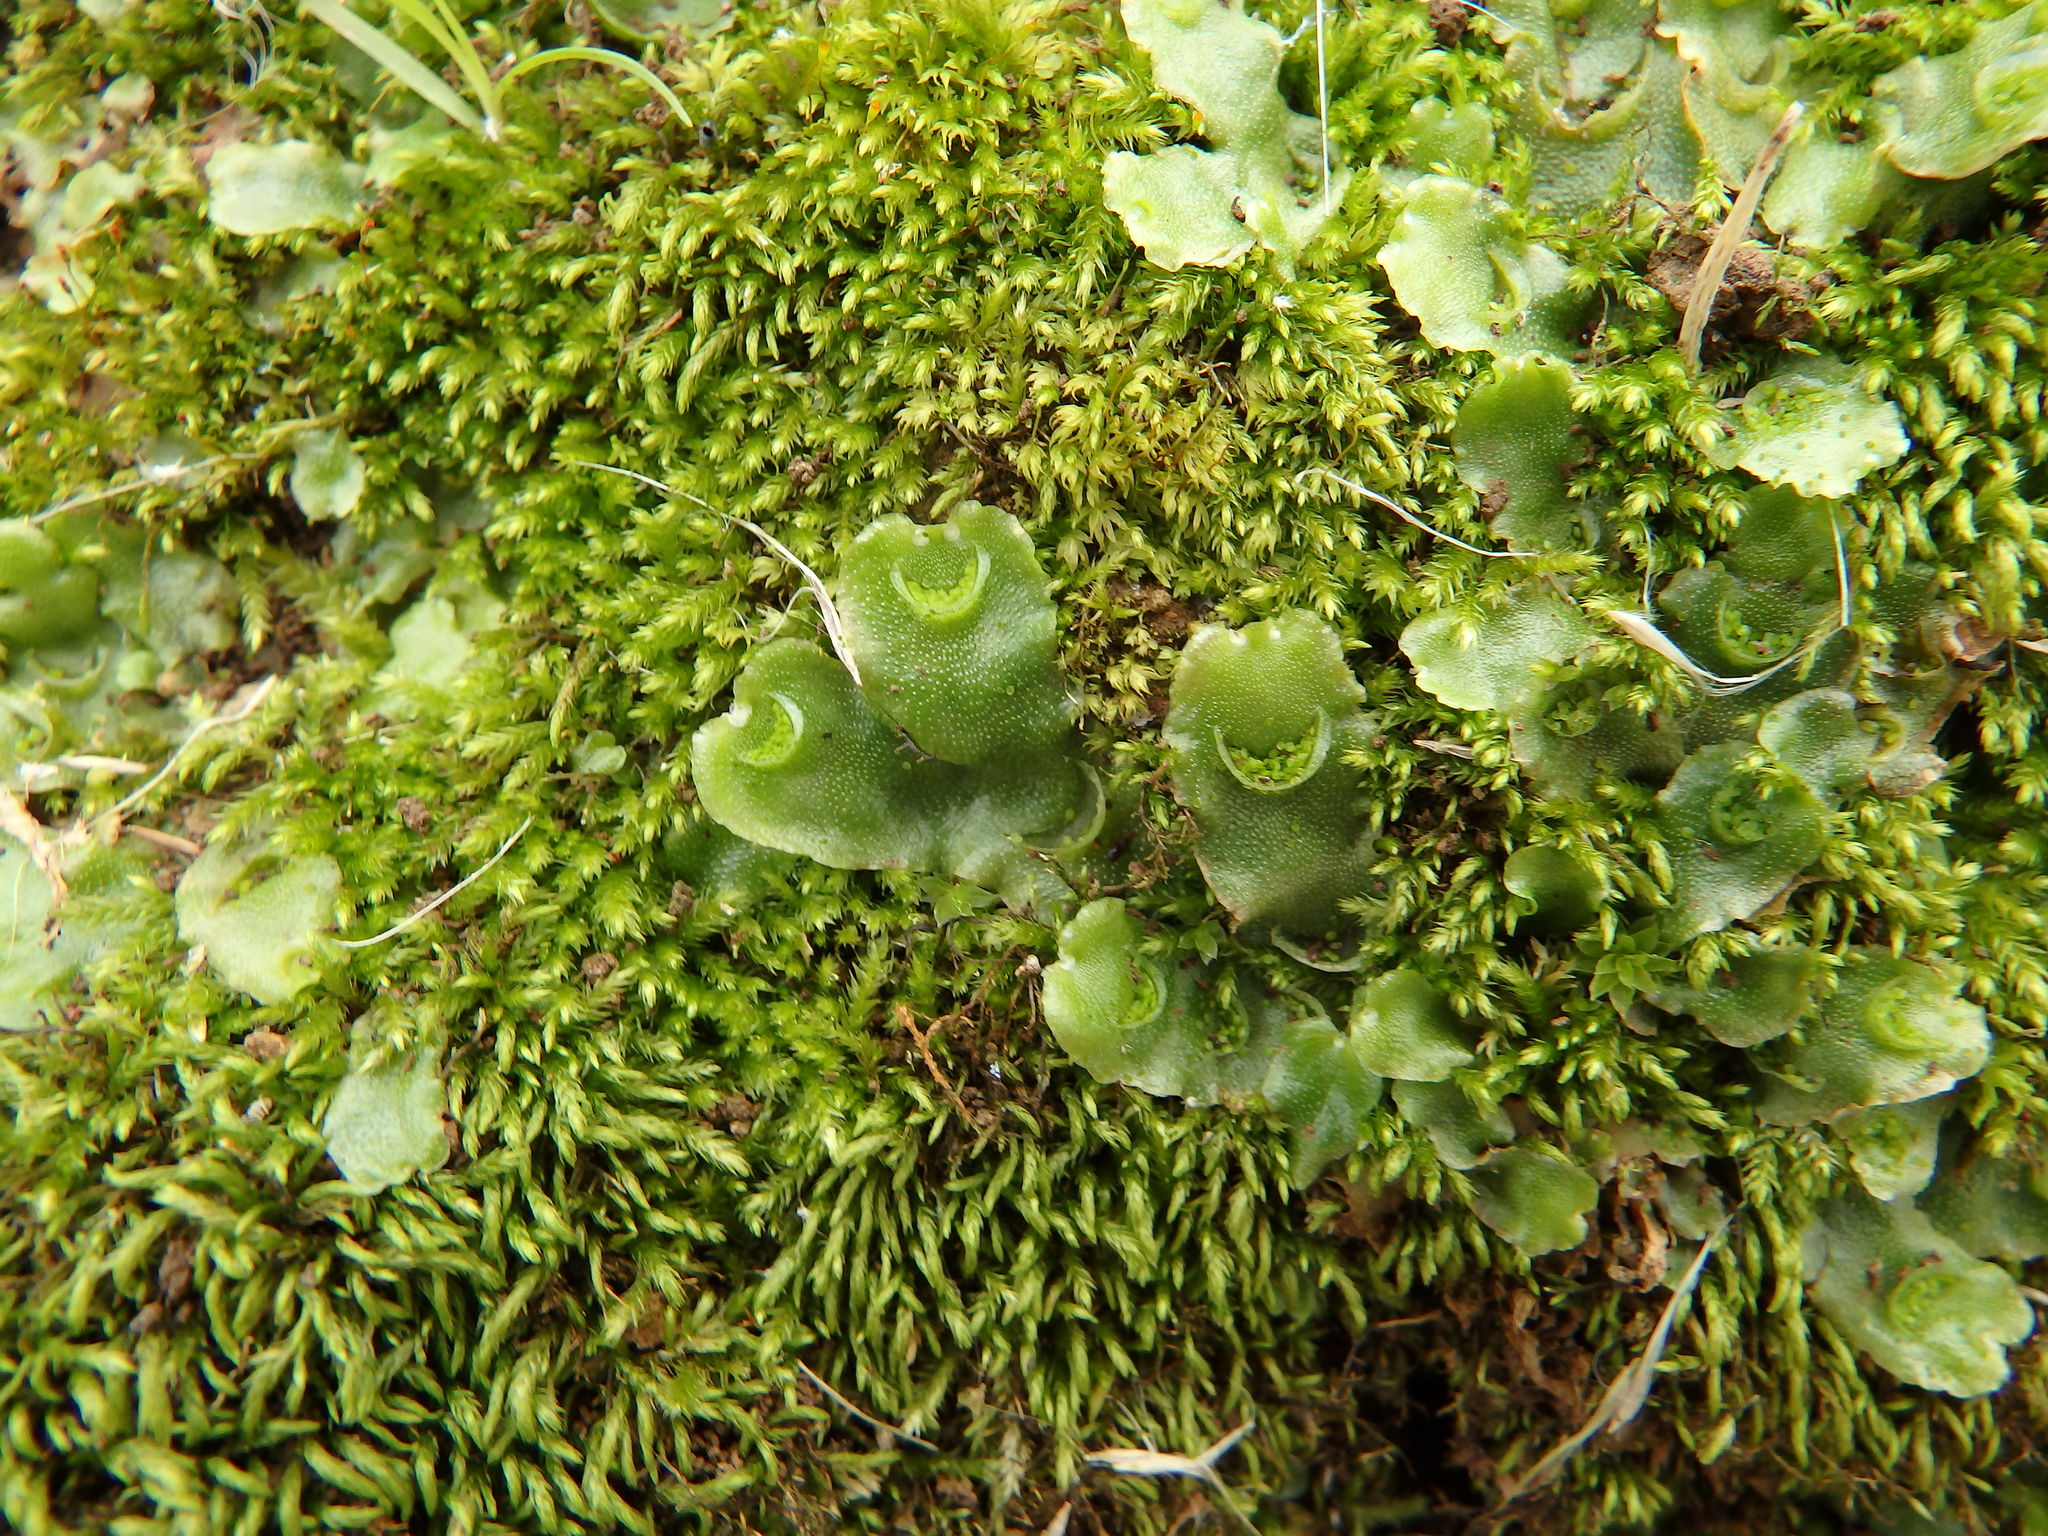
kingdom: Plantae
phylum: Marchantiophyta
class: Marchantiopsida
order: Lunulariales
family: Lunulariaceae
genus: Lunularia
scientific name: Lunularia cruciata
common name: Crescent-cup liverwort
